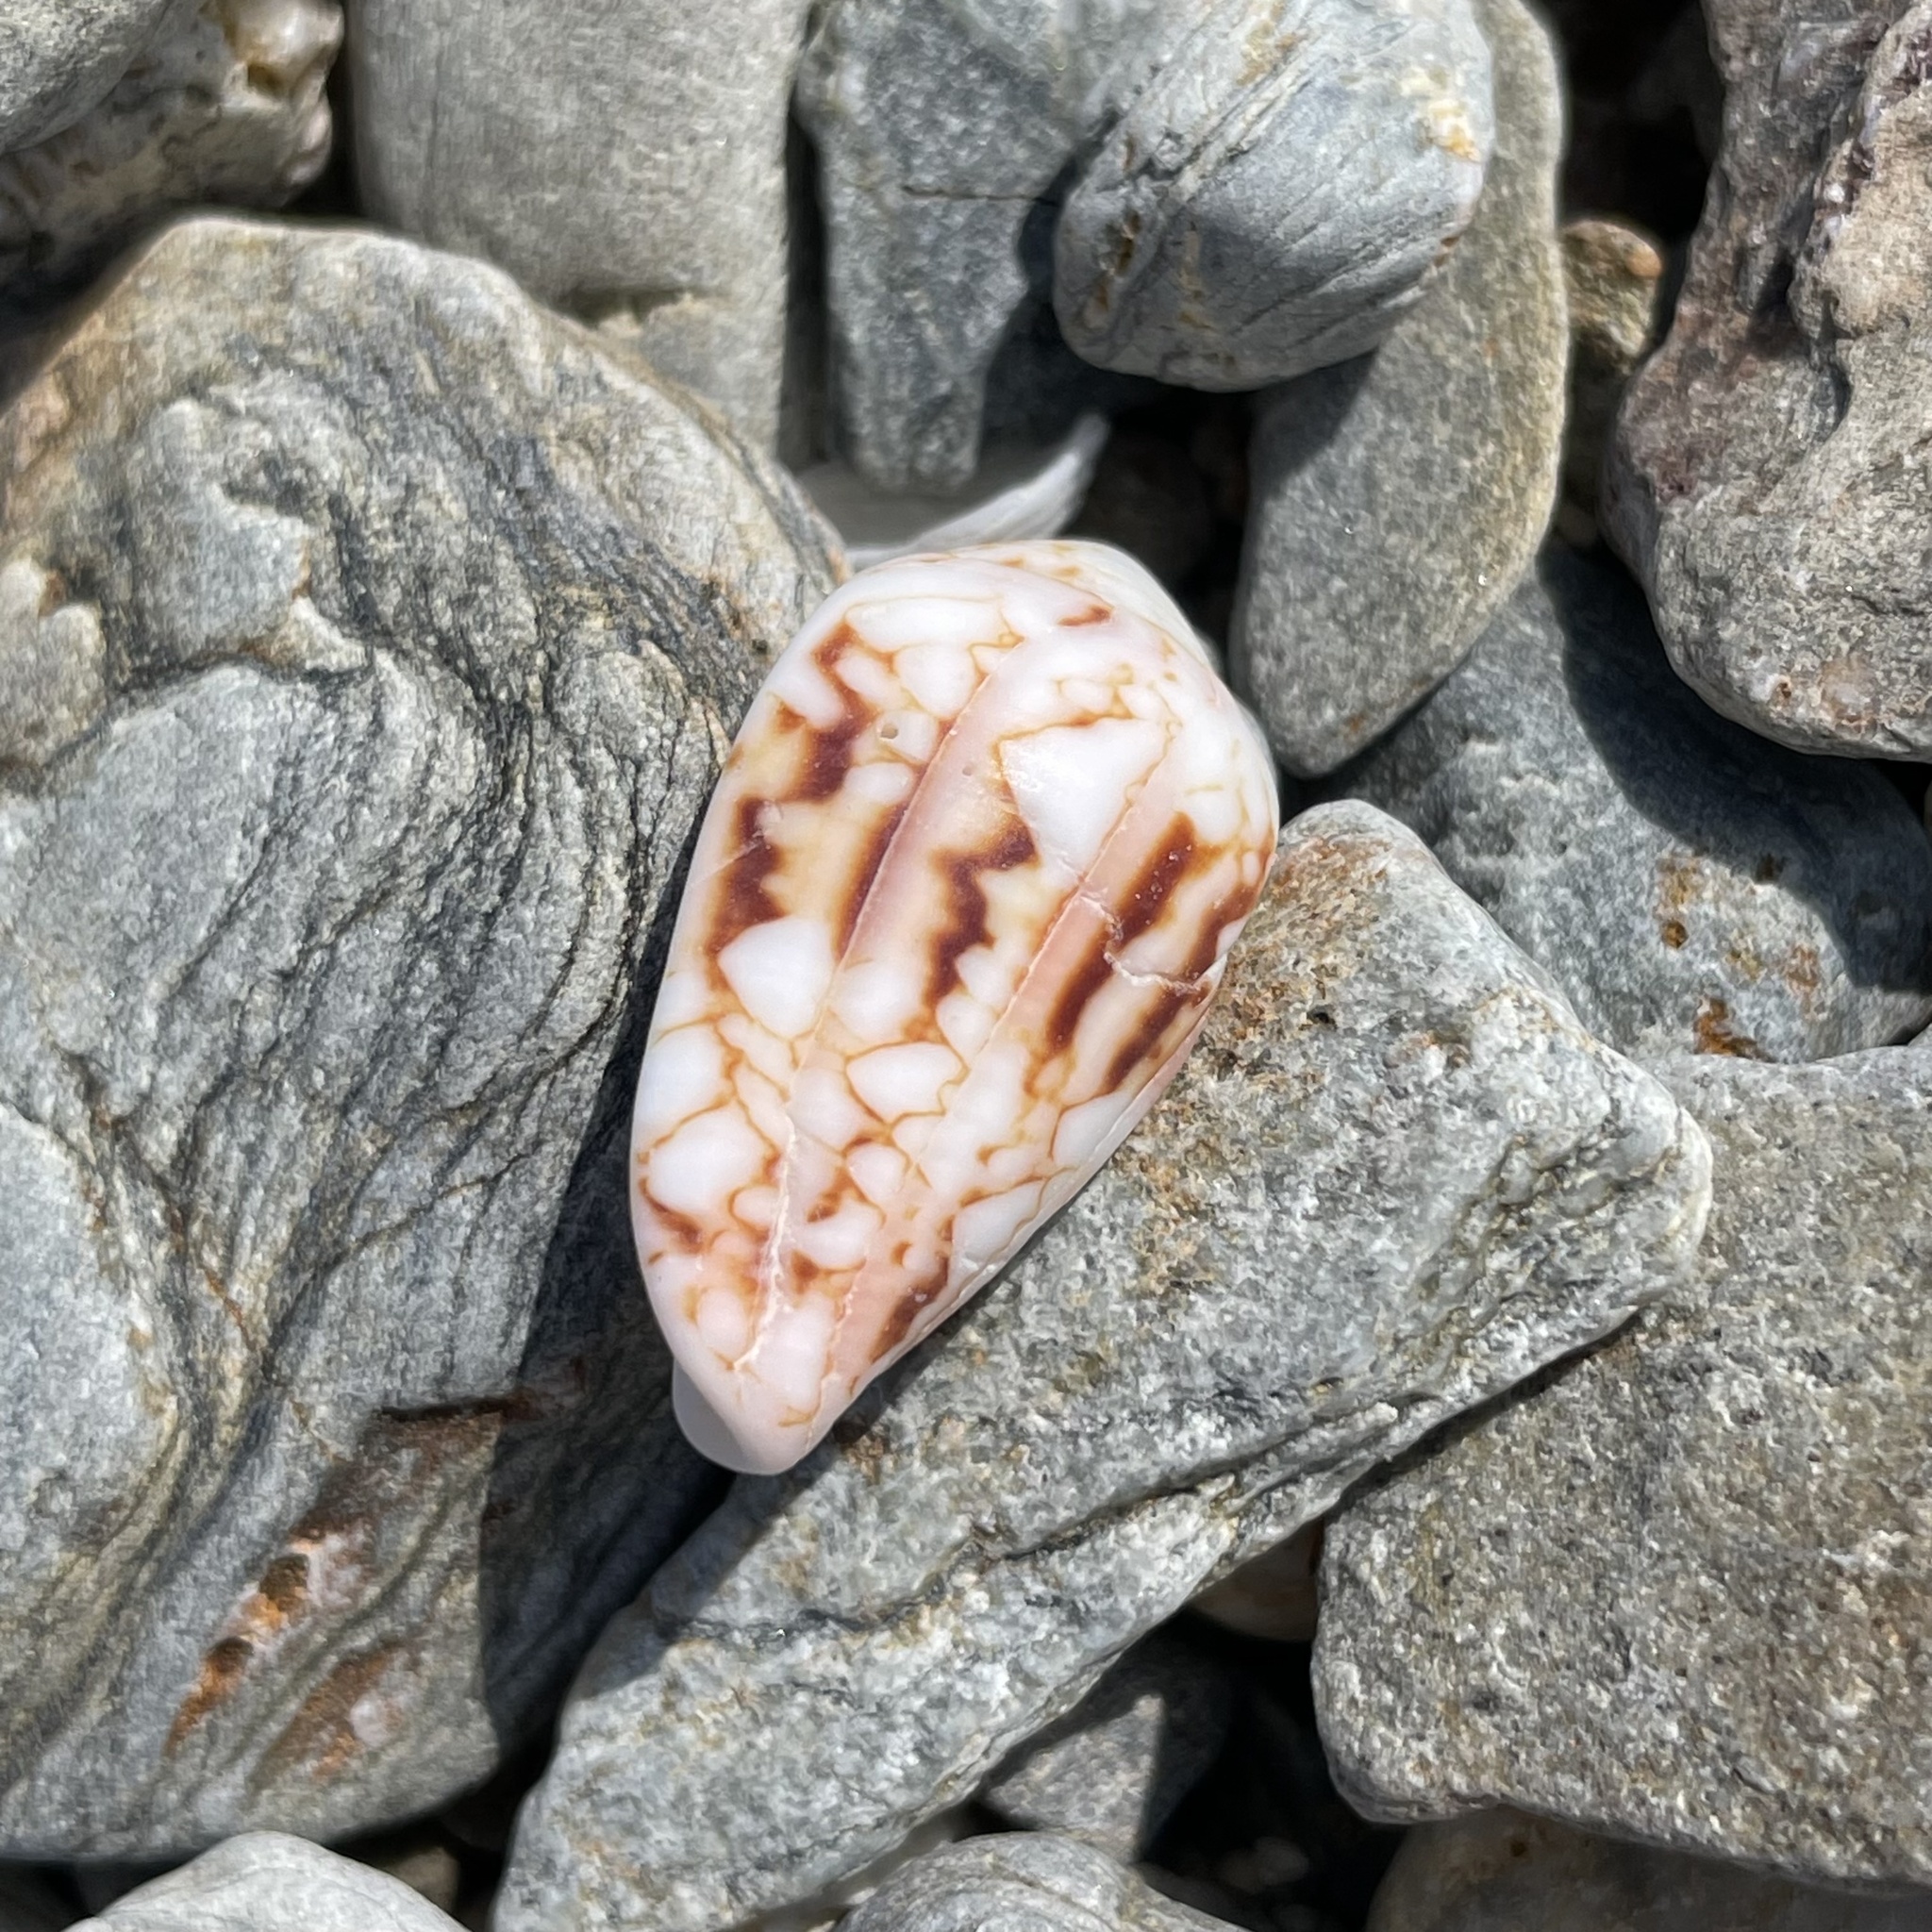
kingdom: Animalia
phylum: Mollusca
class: Gastropoda
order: Neogastropoda
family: Conidae
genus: Conus
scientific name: Conus retifer
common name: Netted cone
